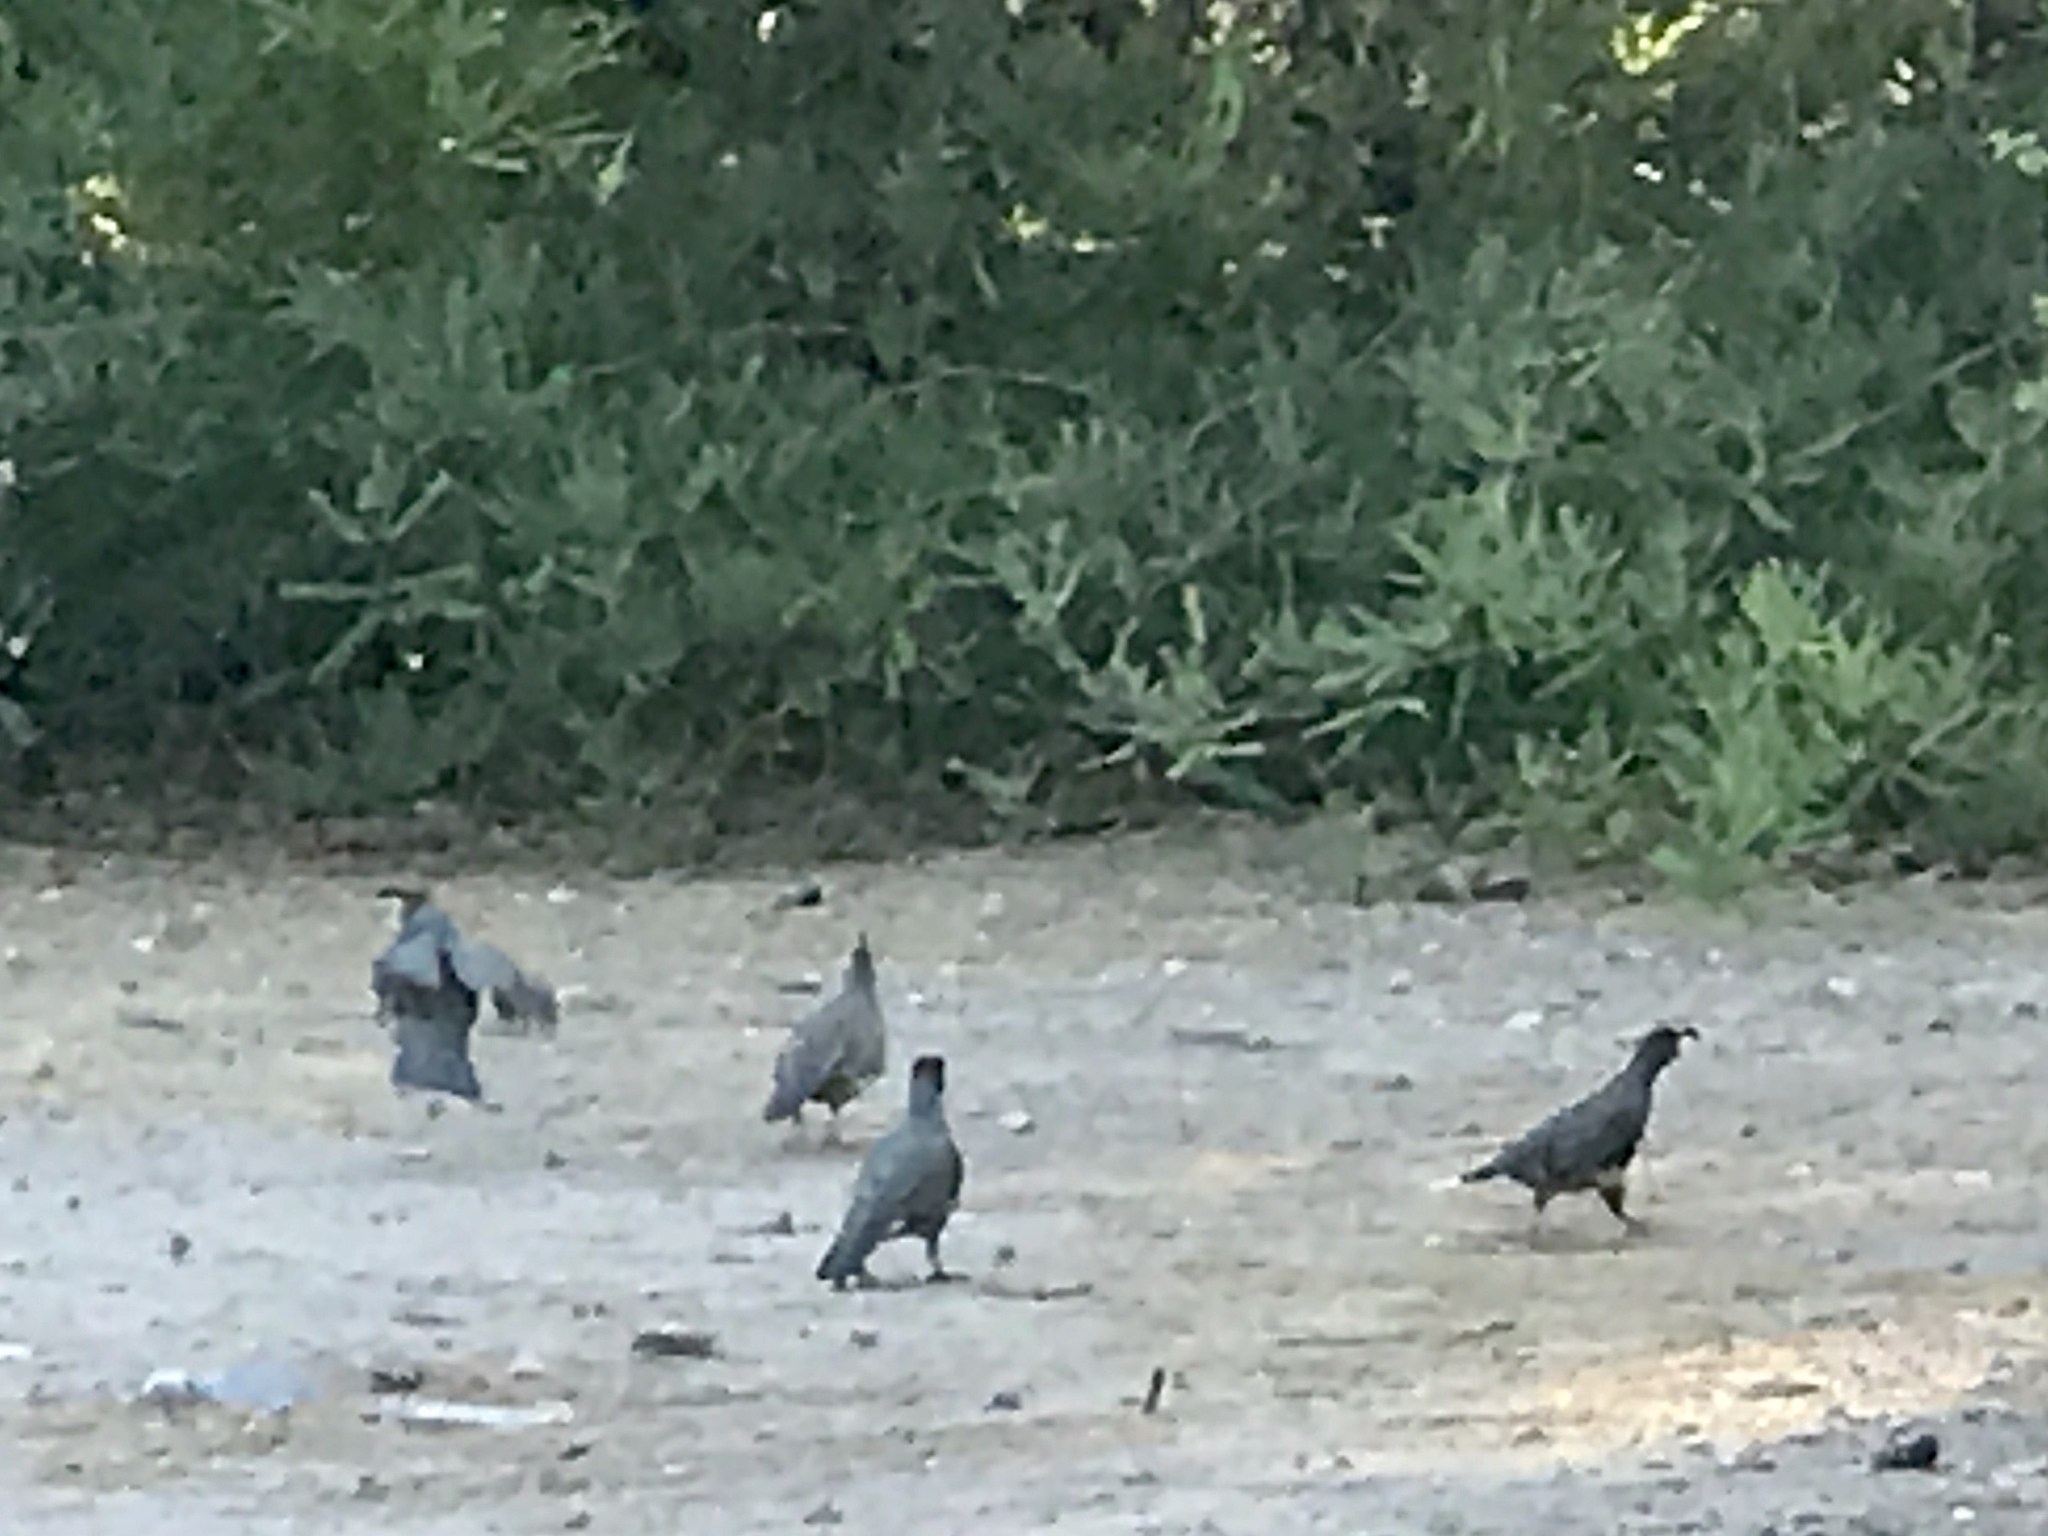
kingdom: Animalia
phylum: Chordata
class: Aves
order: Galliformes
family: Odontophoridae
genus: Callipepla
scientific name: Callipepla gambelii
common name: Gambel's quail
